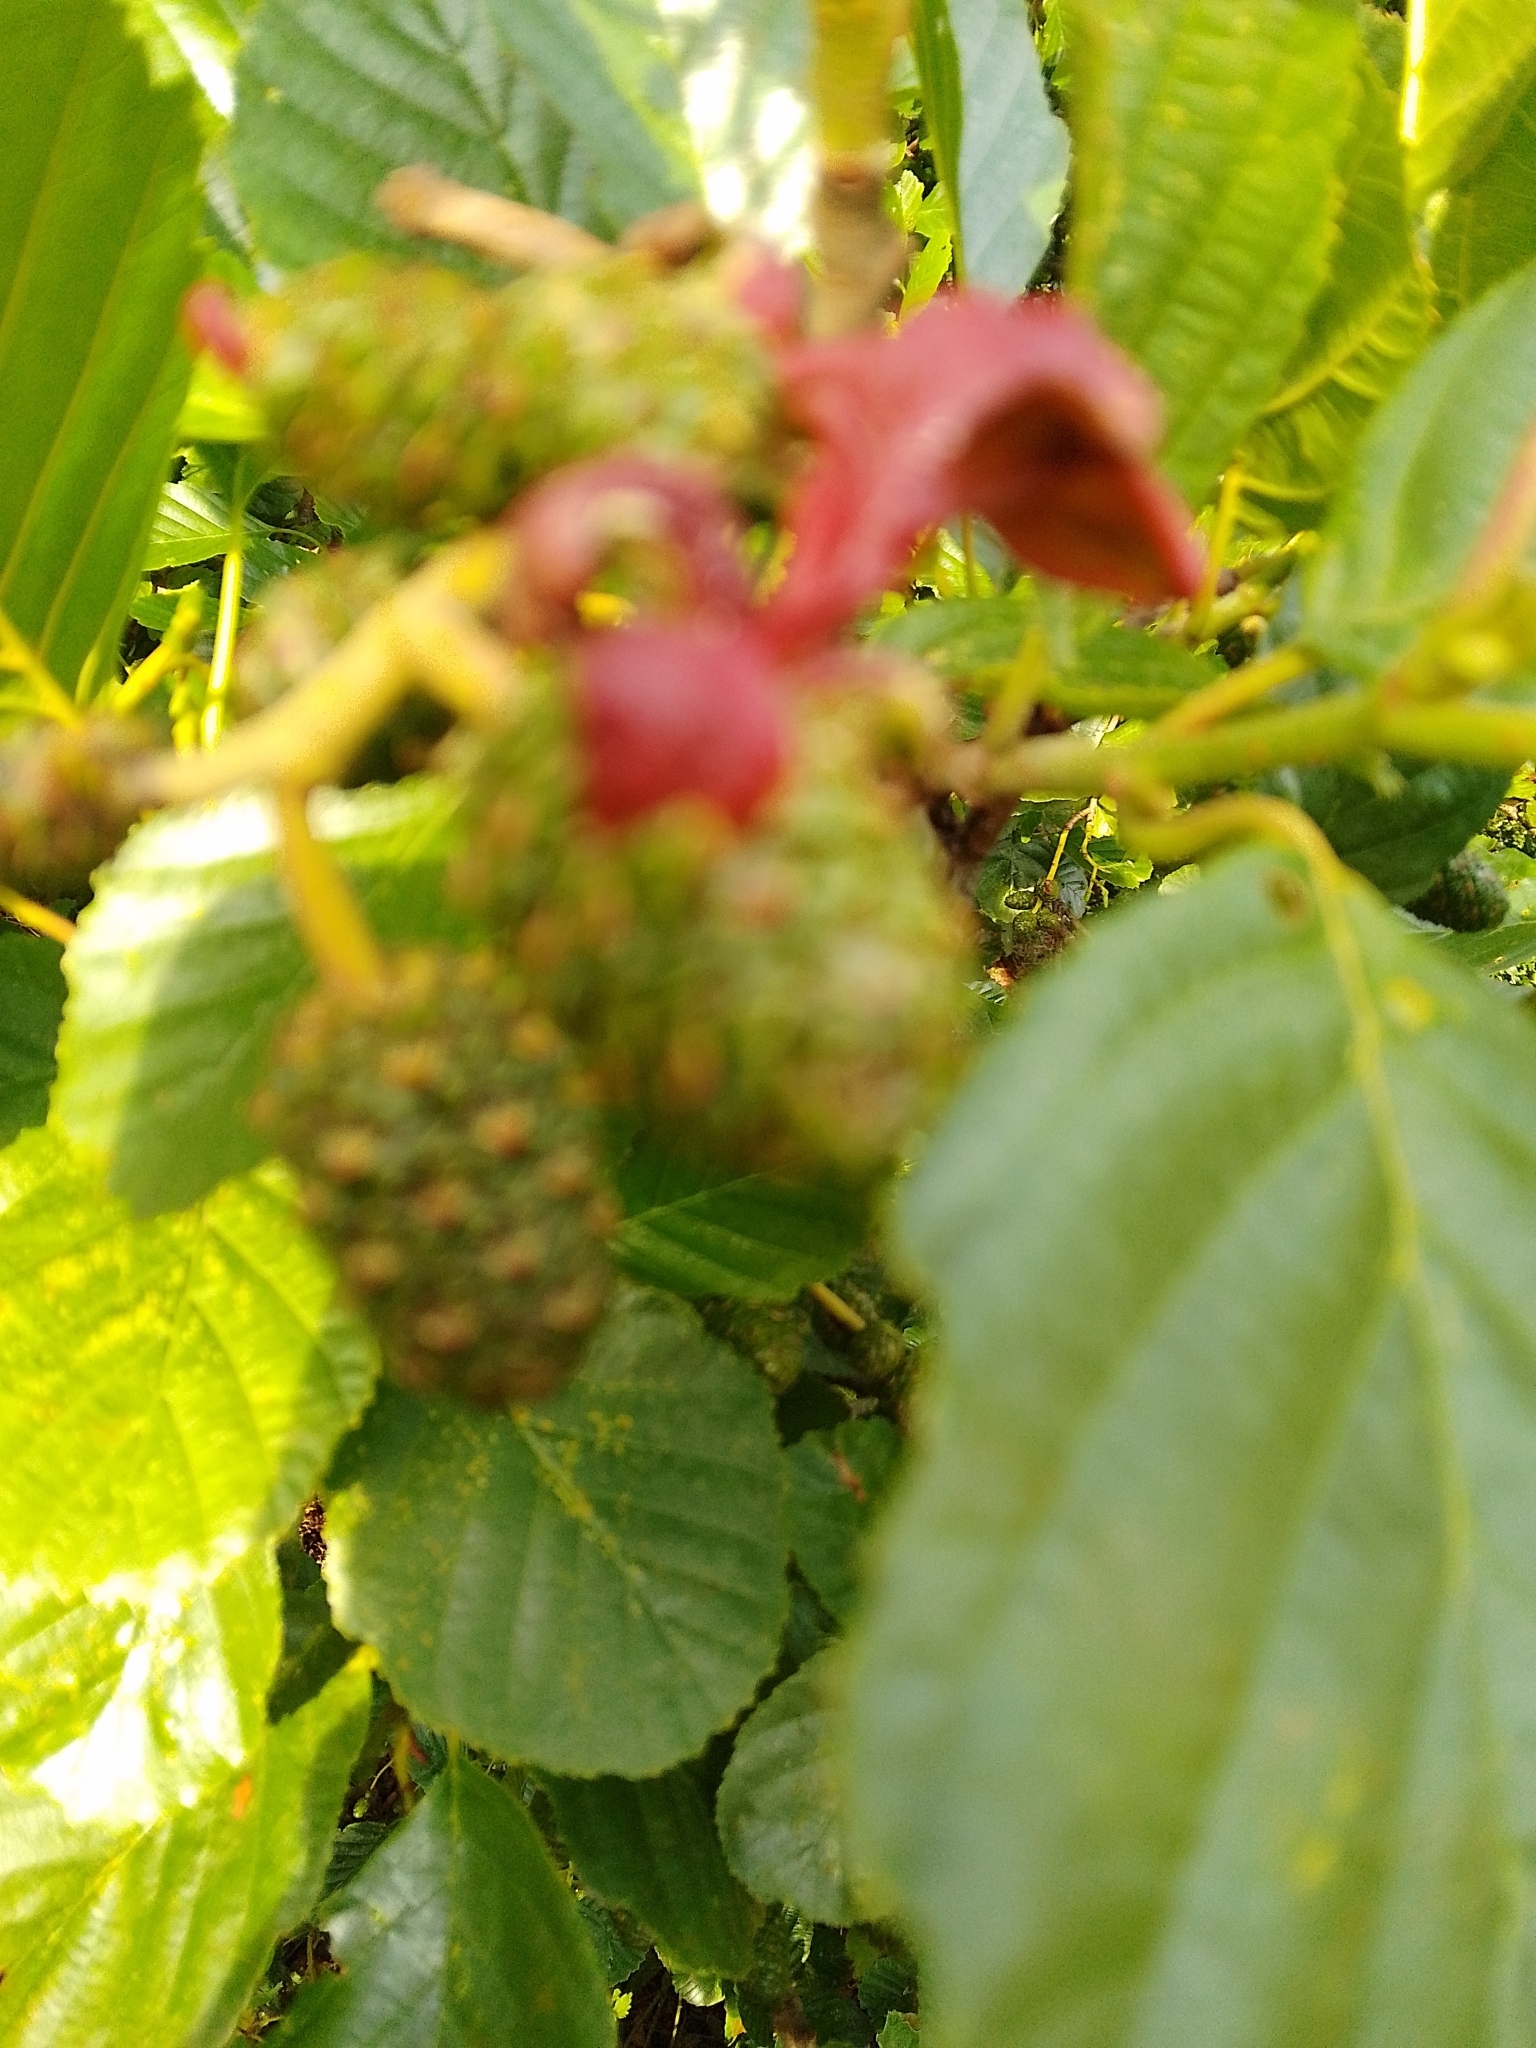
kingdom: Fungi
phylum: Ascomycota
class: Taphrinomycetes
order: Taphrinales
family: Taphrinaceae
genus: Taphrina
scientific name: Taphrina alni
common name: Alder tongue
